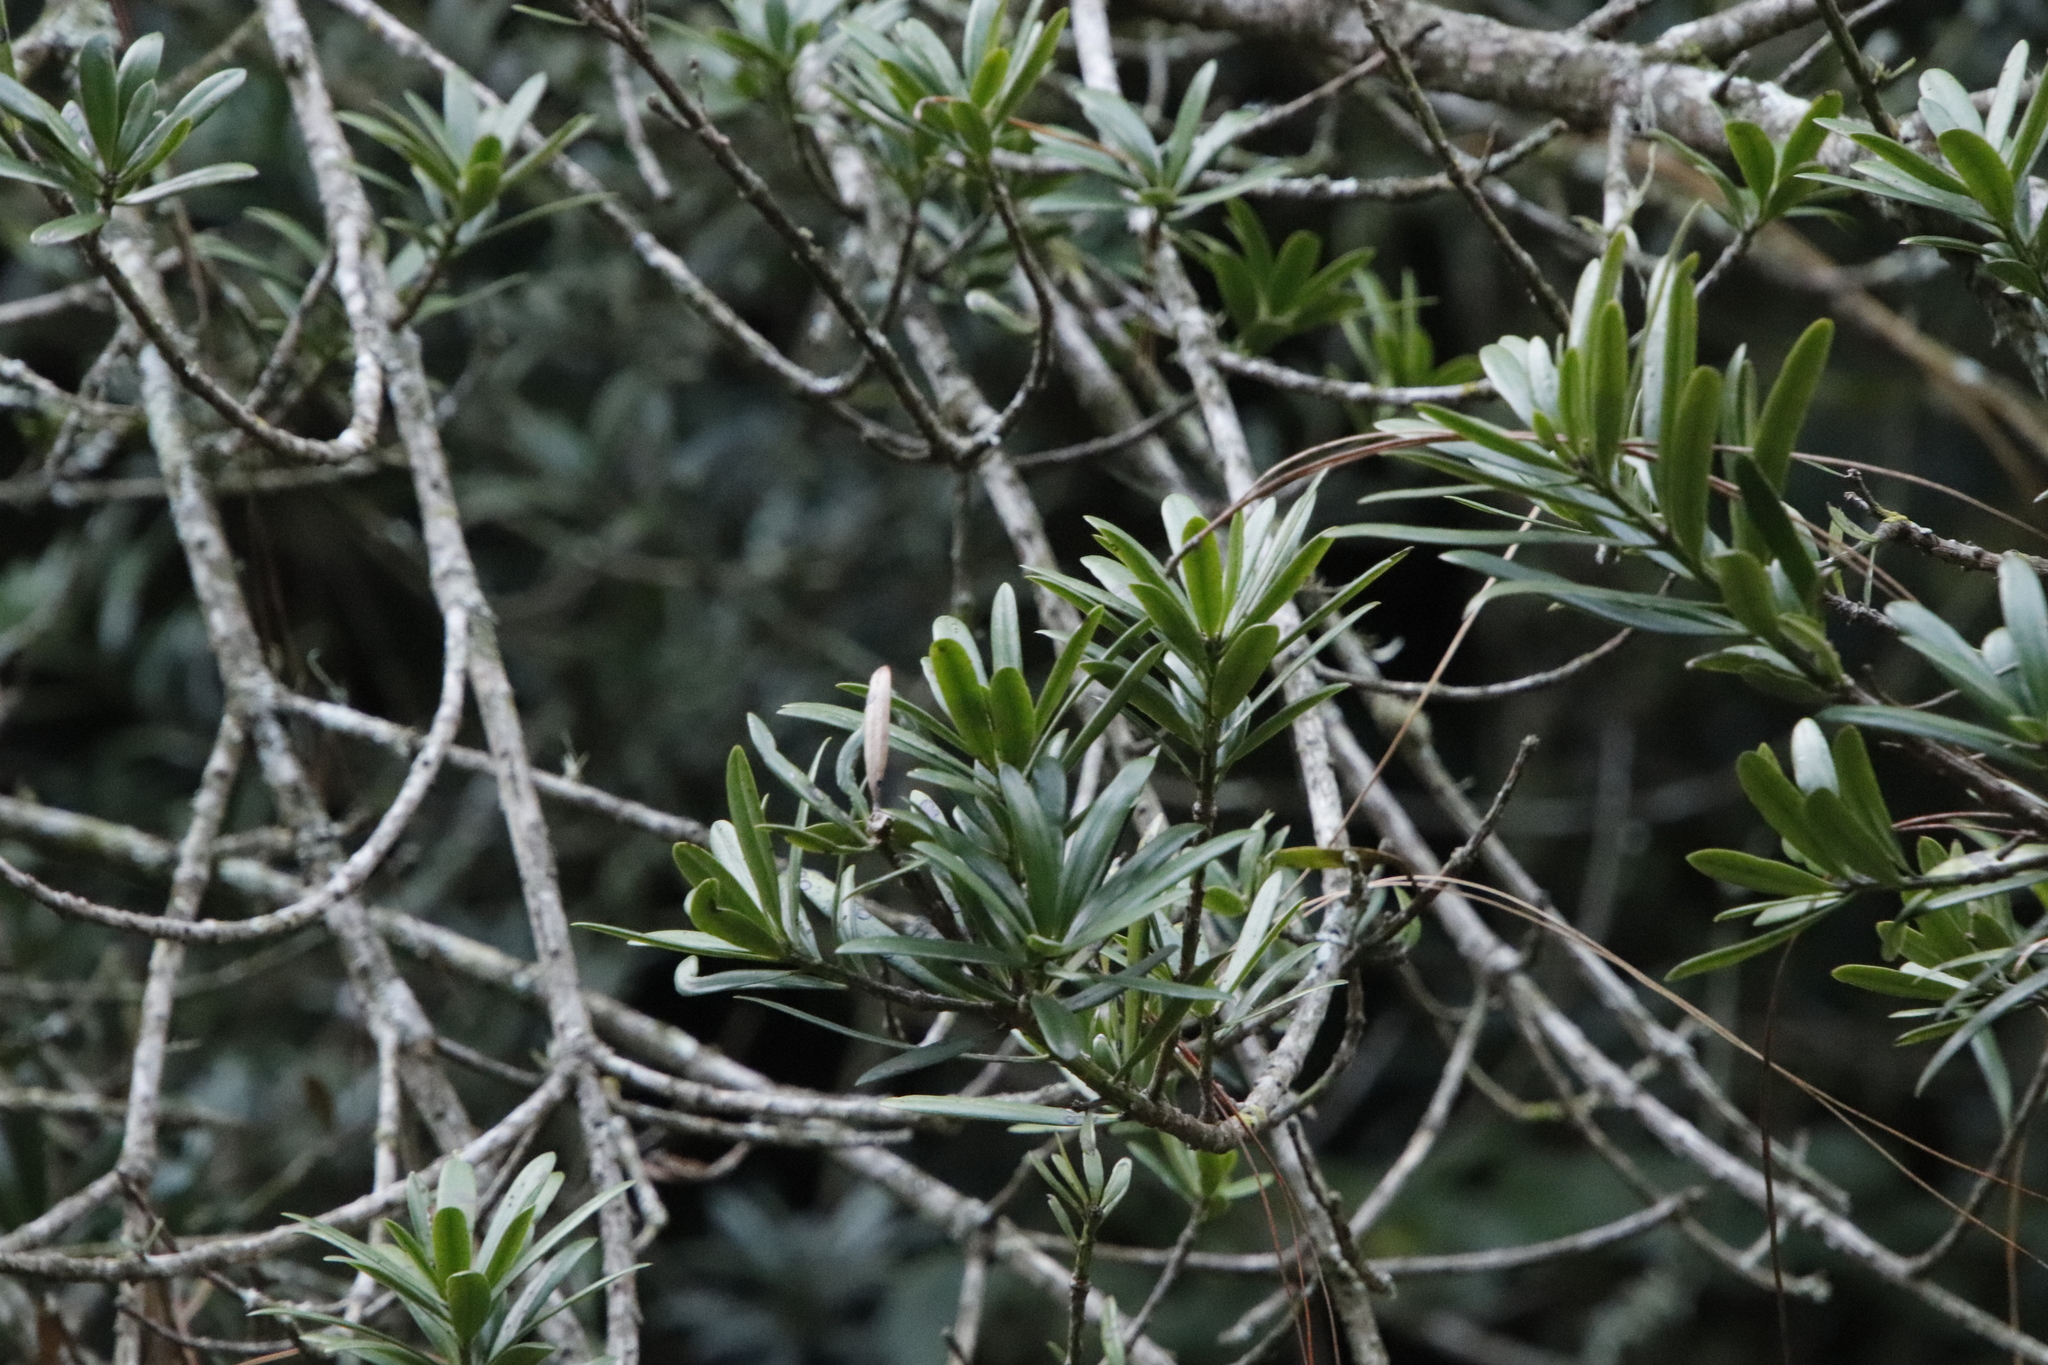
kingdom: Plantae
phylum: Tracheophyta
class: Pinopsida
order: Pinales
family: Podocarpaceae
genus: Podocarpus
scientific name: Podocarpus latifolius
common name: True yellowwood
